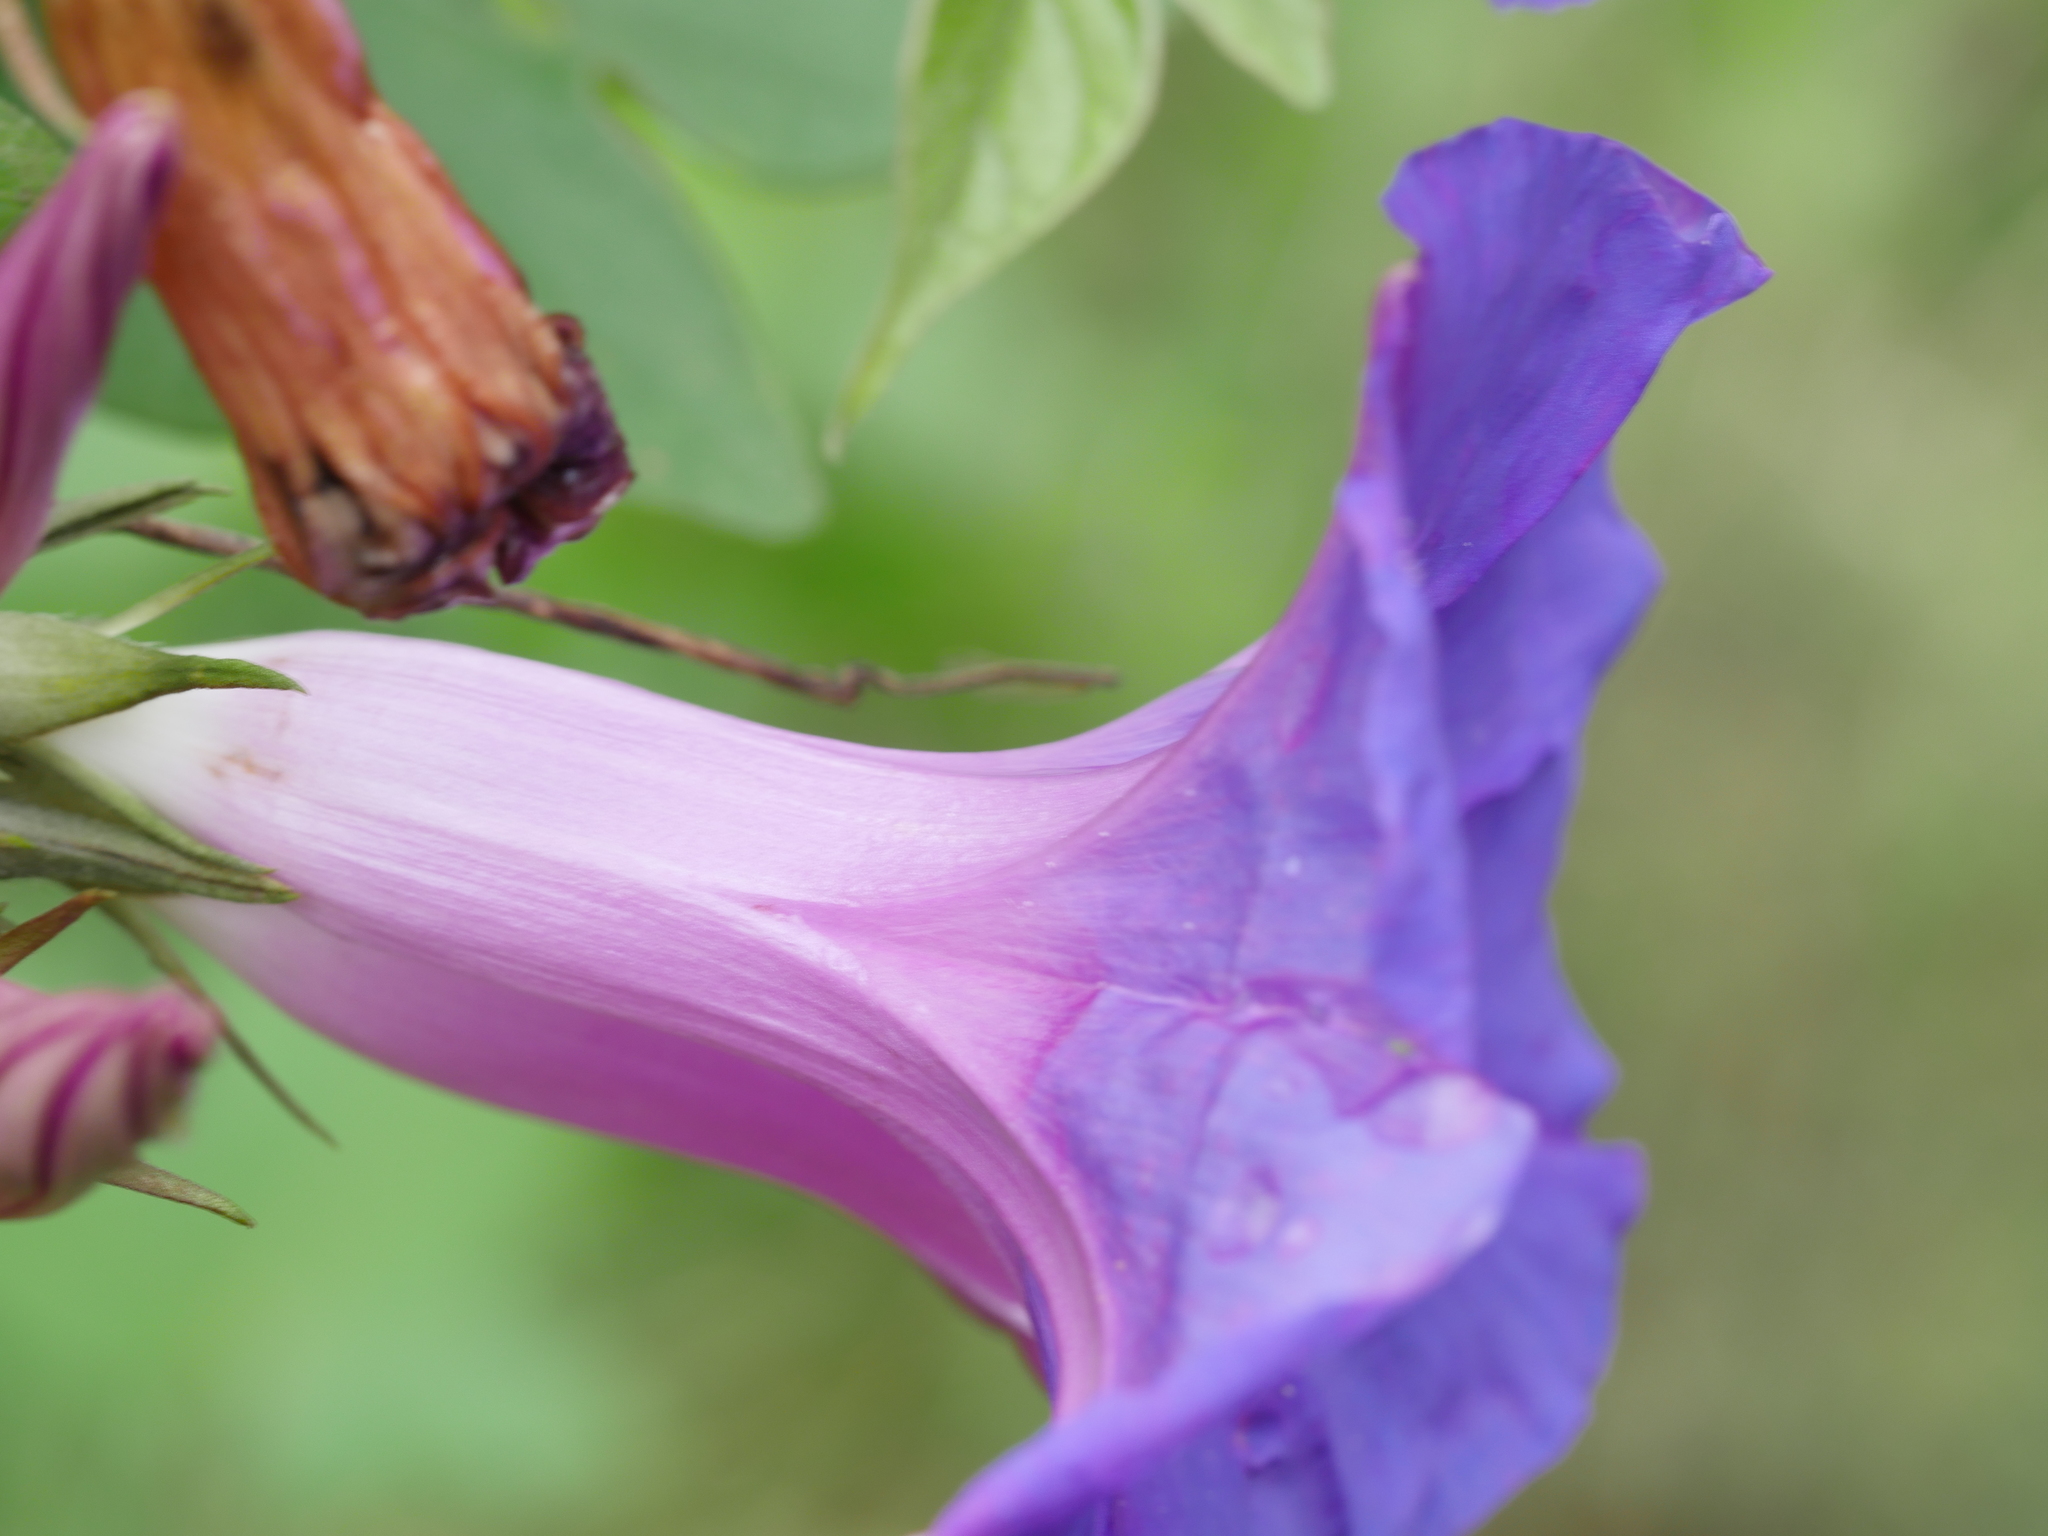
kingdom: Plantae
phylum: Tracheophyta
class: Magnoliopsida
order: Solanales
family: Convolvulaceae
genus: Ipomoea
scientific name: Ipomoea indica
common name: Blue dawnflower
